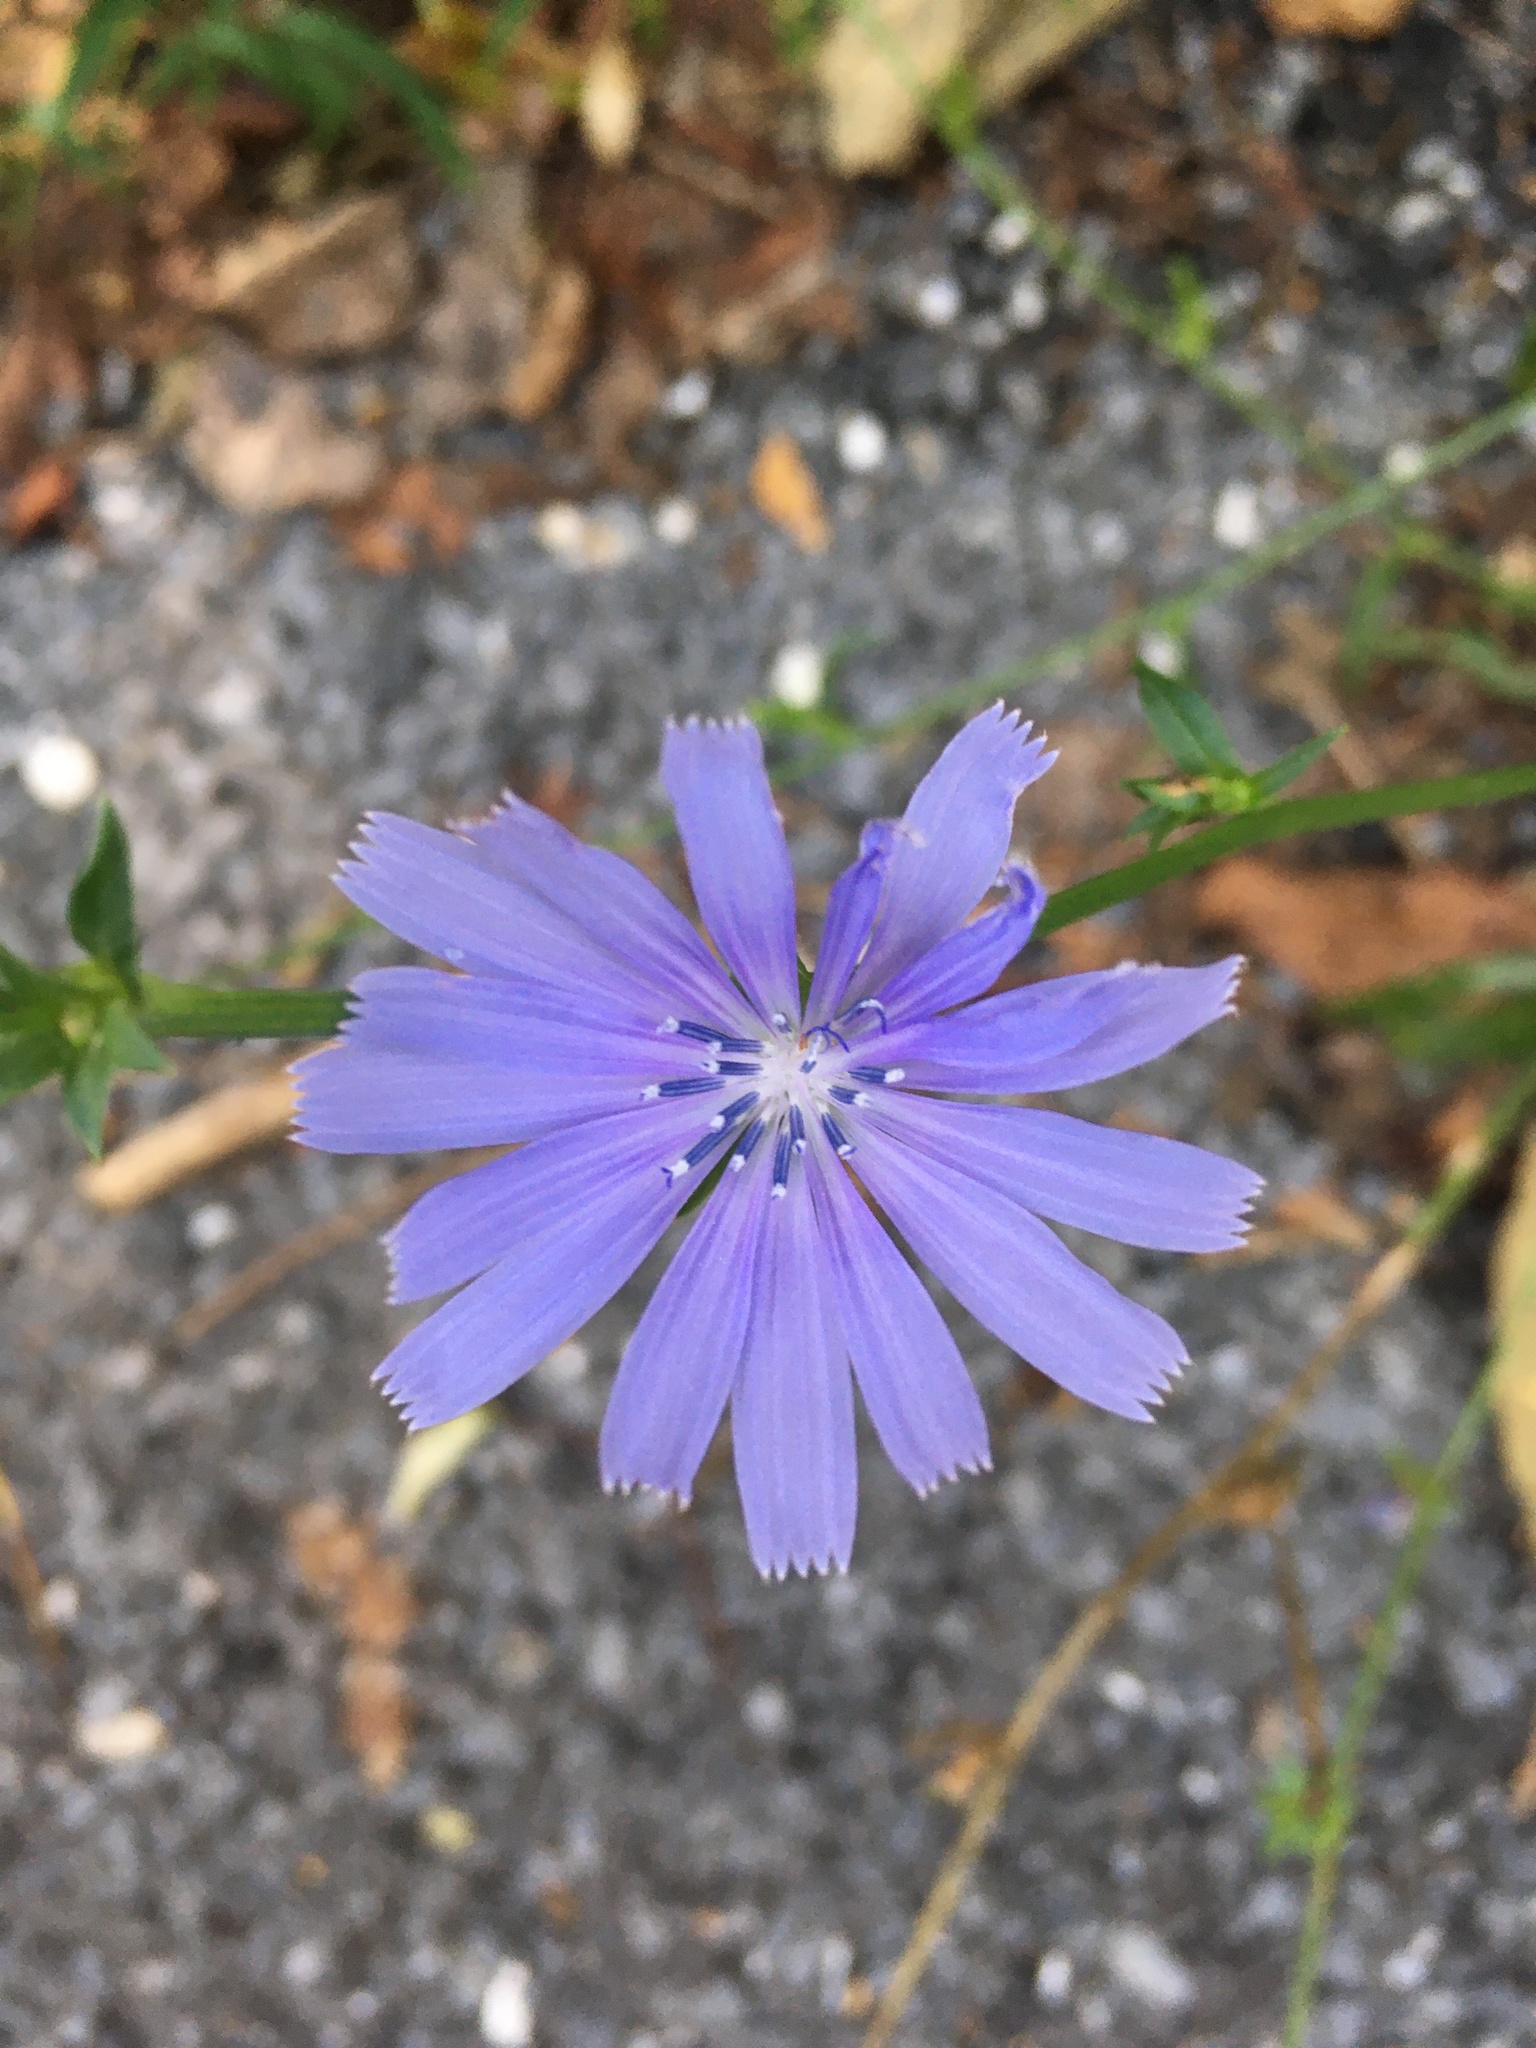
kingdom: Plantae
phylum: Tracheophyta
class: Magnoliopsida
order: Asterales
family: Asteraceae
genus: Cichorium
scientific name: Cichorium intybus
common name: Chicory
